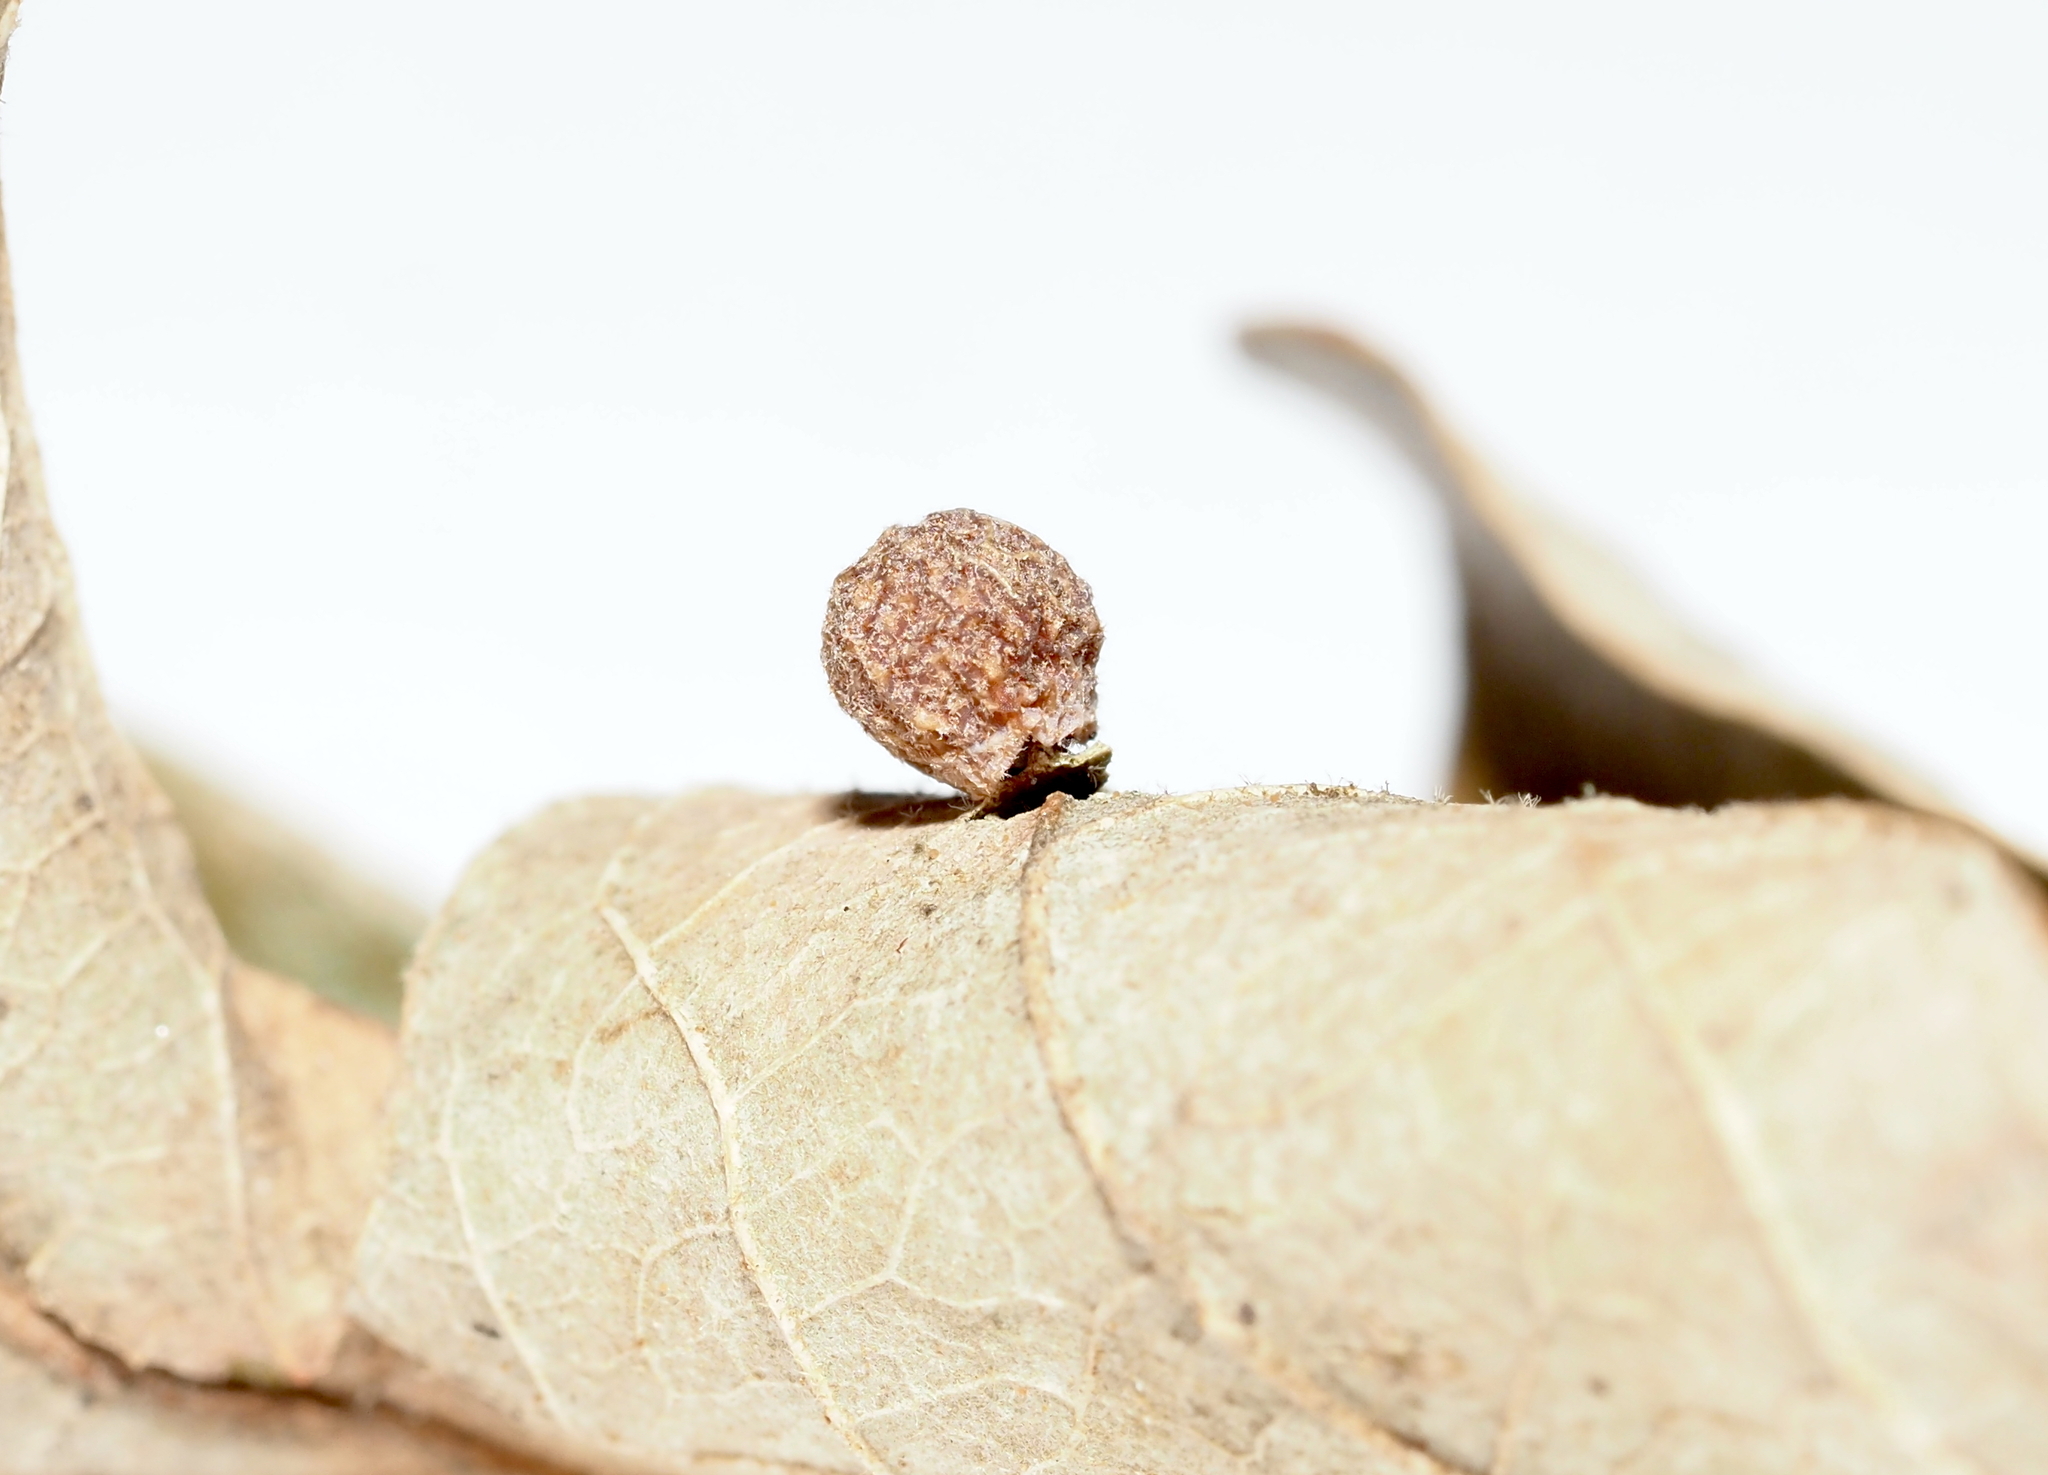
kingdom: Animalia
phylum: Arthropoda
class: Insecta
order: Hymenoptera
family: Cynipidae
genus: Atrusca
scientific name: Atrusca
